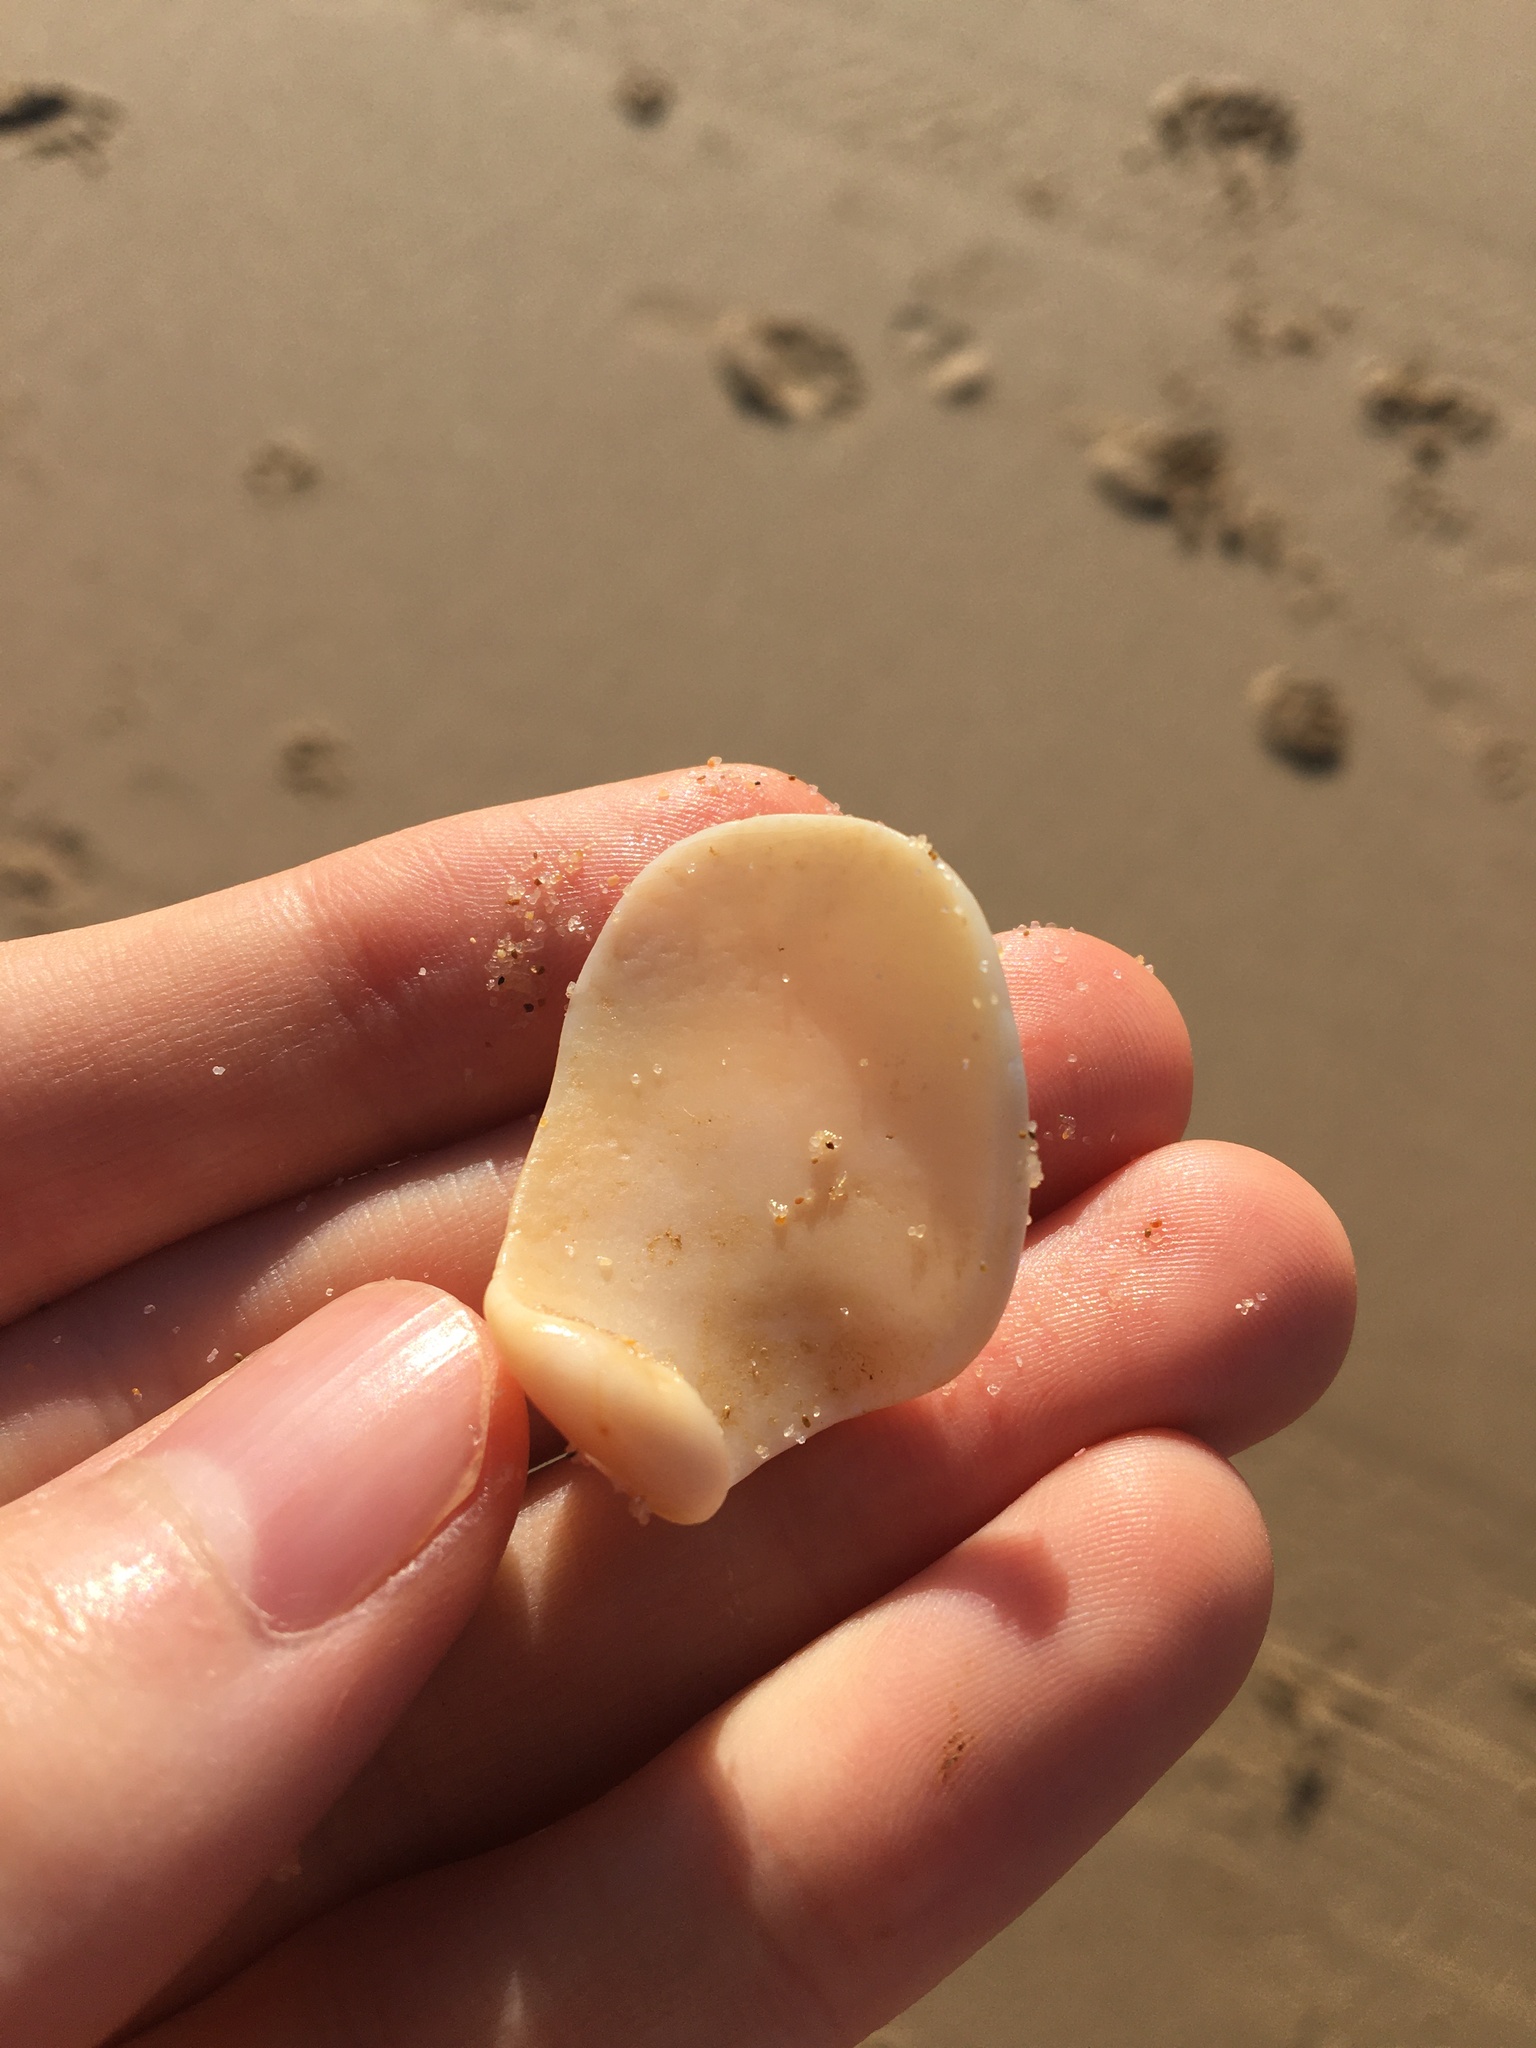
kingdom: Animalia
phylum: Mollusca
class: Gastropoda
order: Neogastropoda
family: Volutidae
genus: Amoria
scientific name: Amoria undulata
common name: Waved volute
